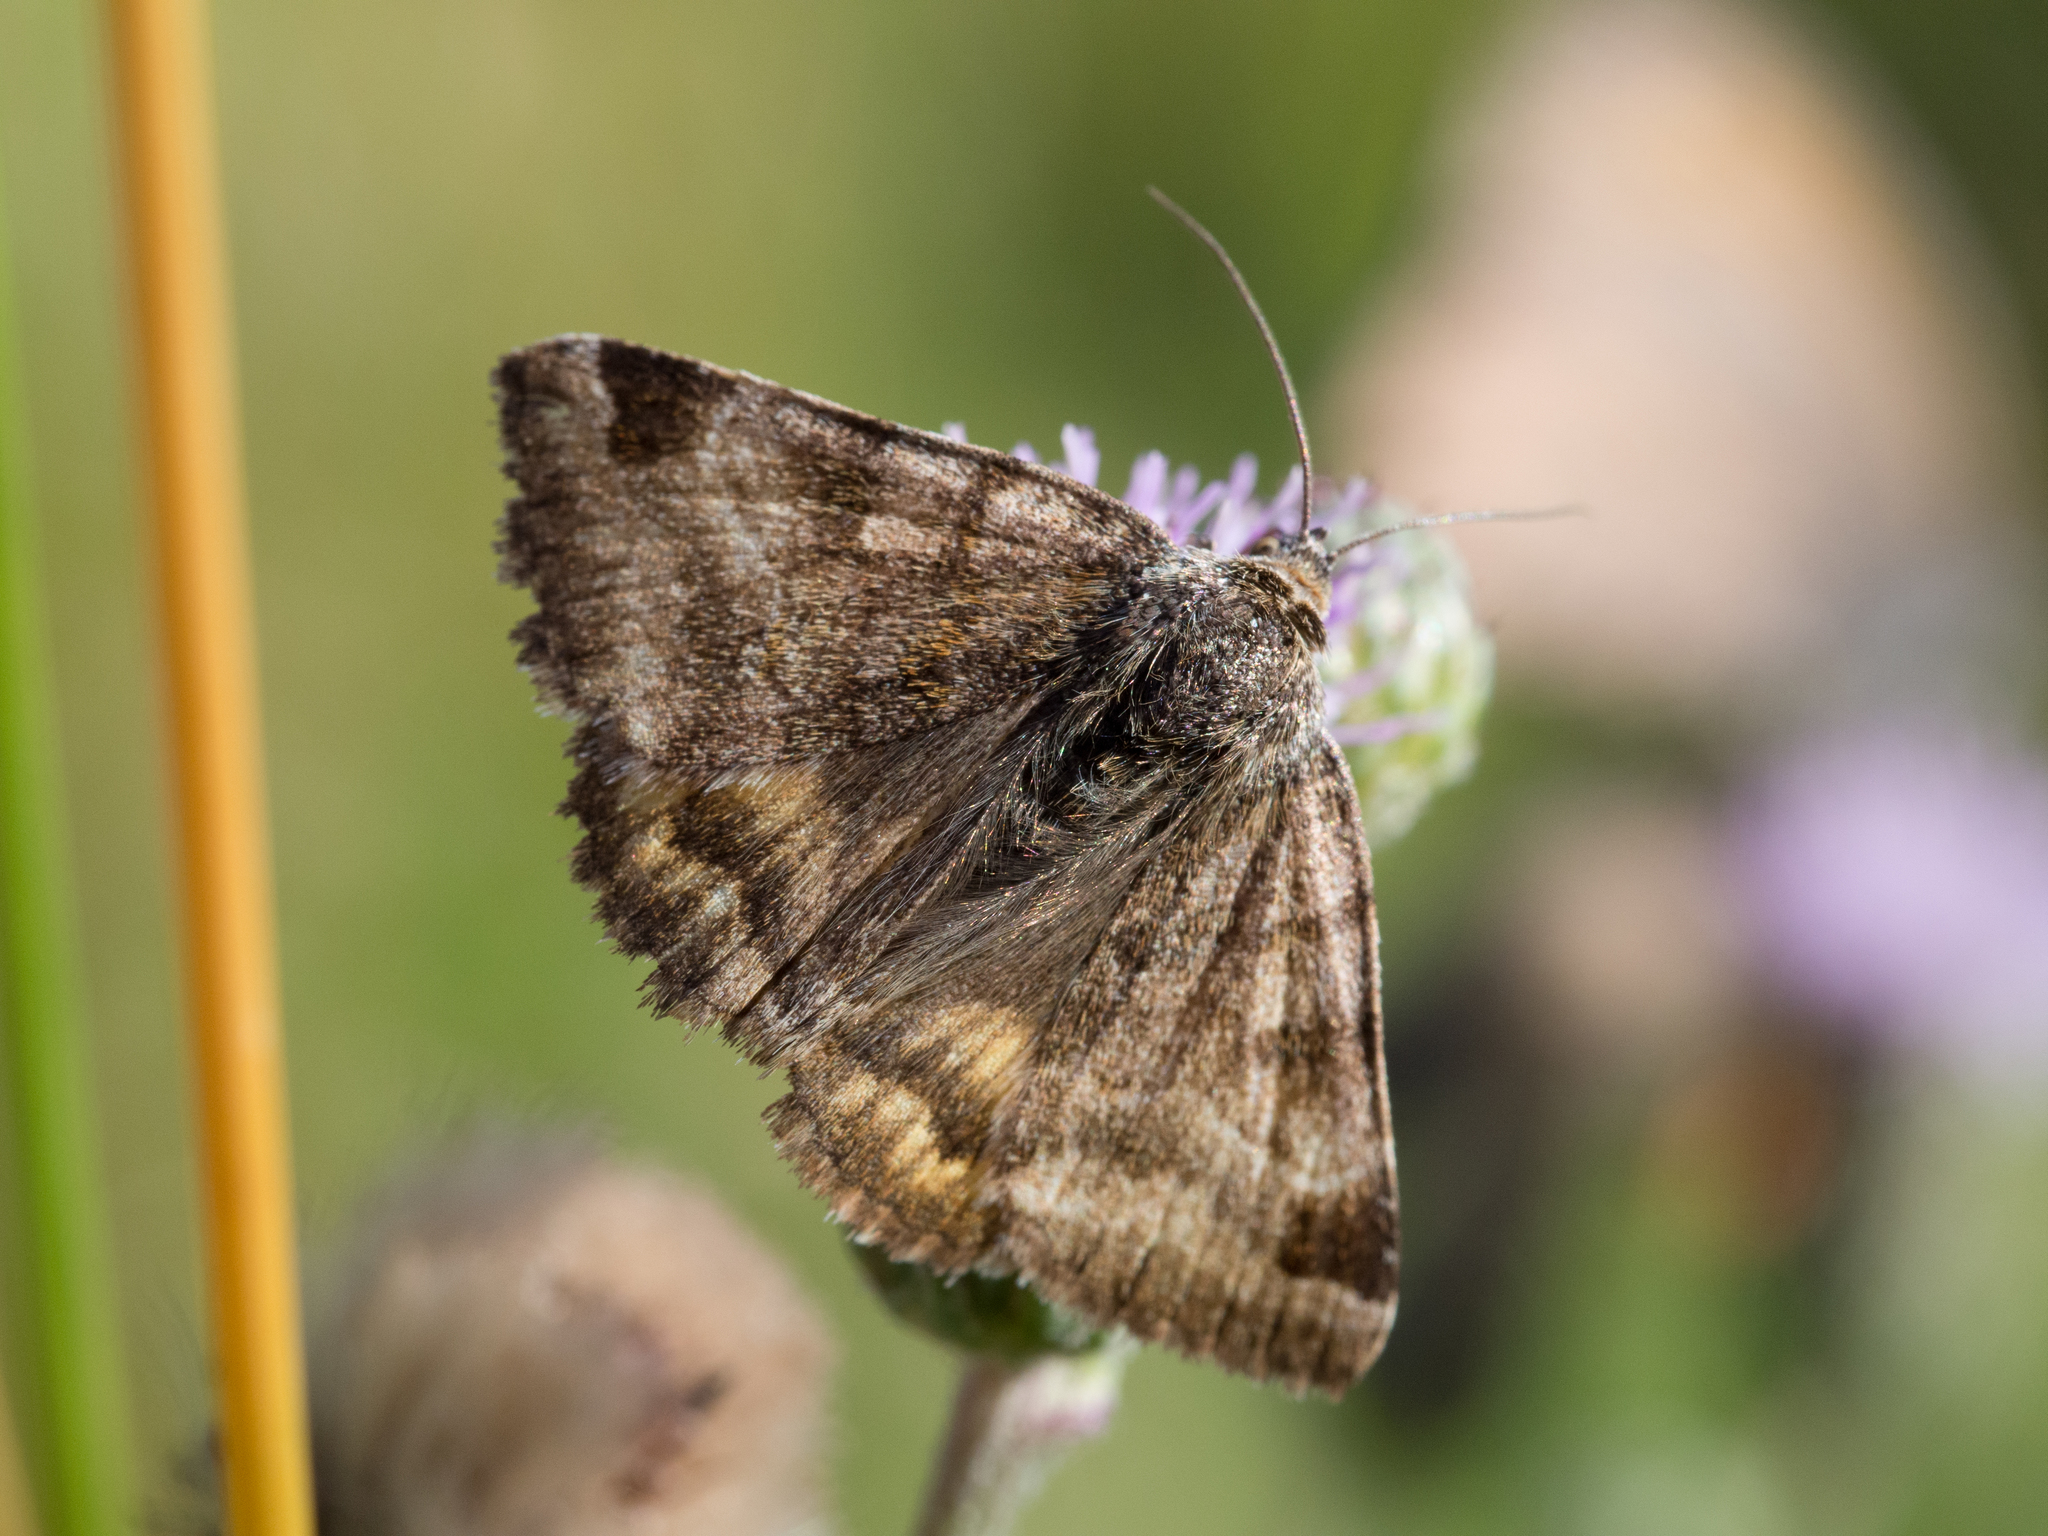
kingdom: Animalia
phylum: Arthropoda
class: Insecta
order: Lepidoptera
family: Erebidae
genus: Euclidia
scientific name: Euclidia glyphica
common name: Burnet companion
